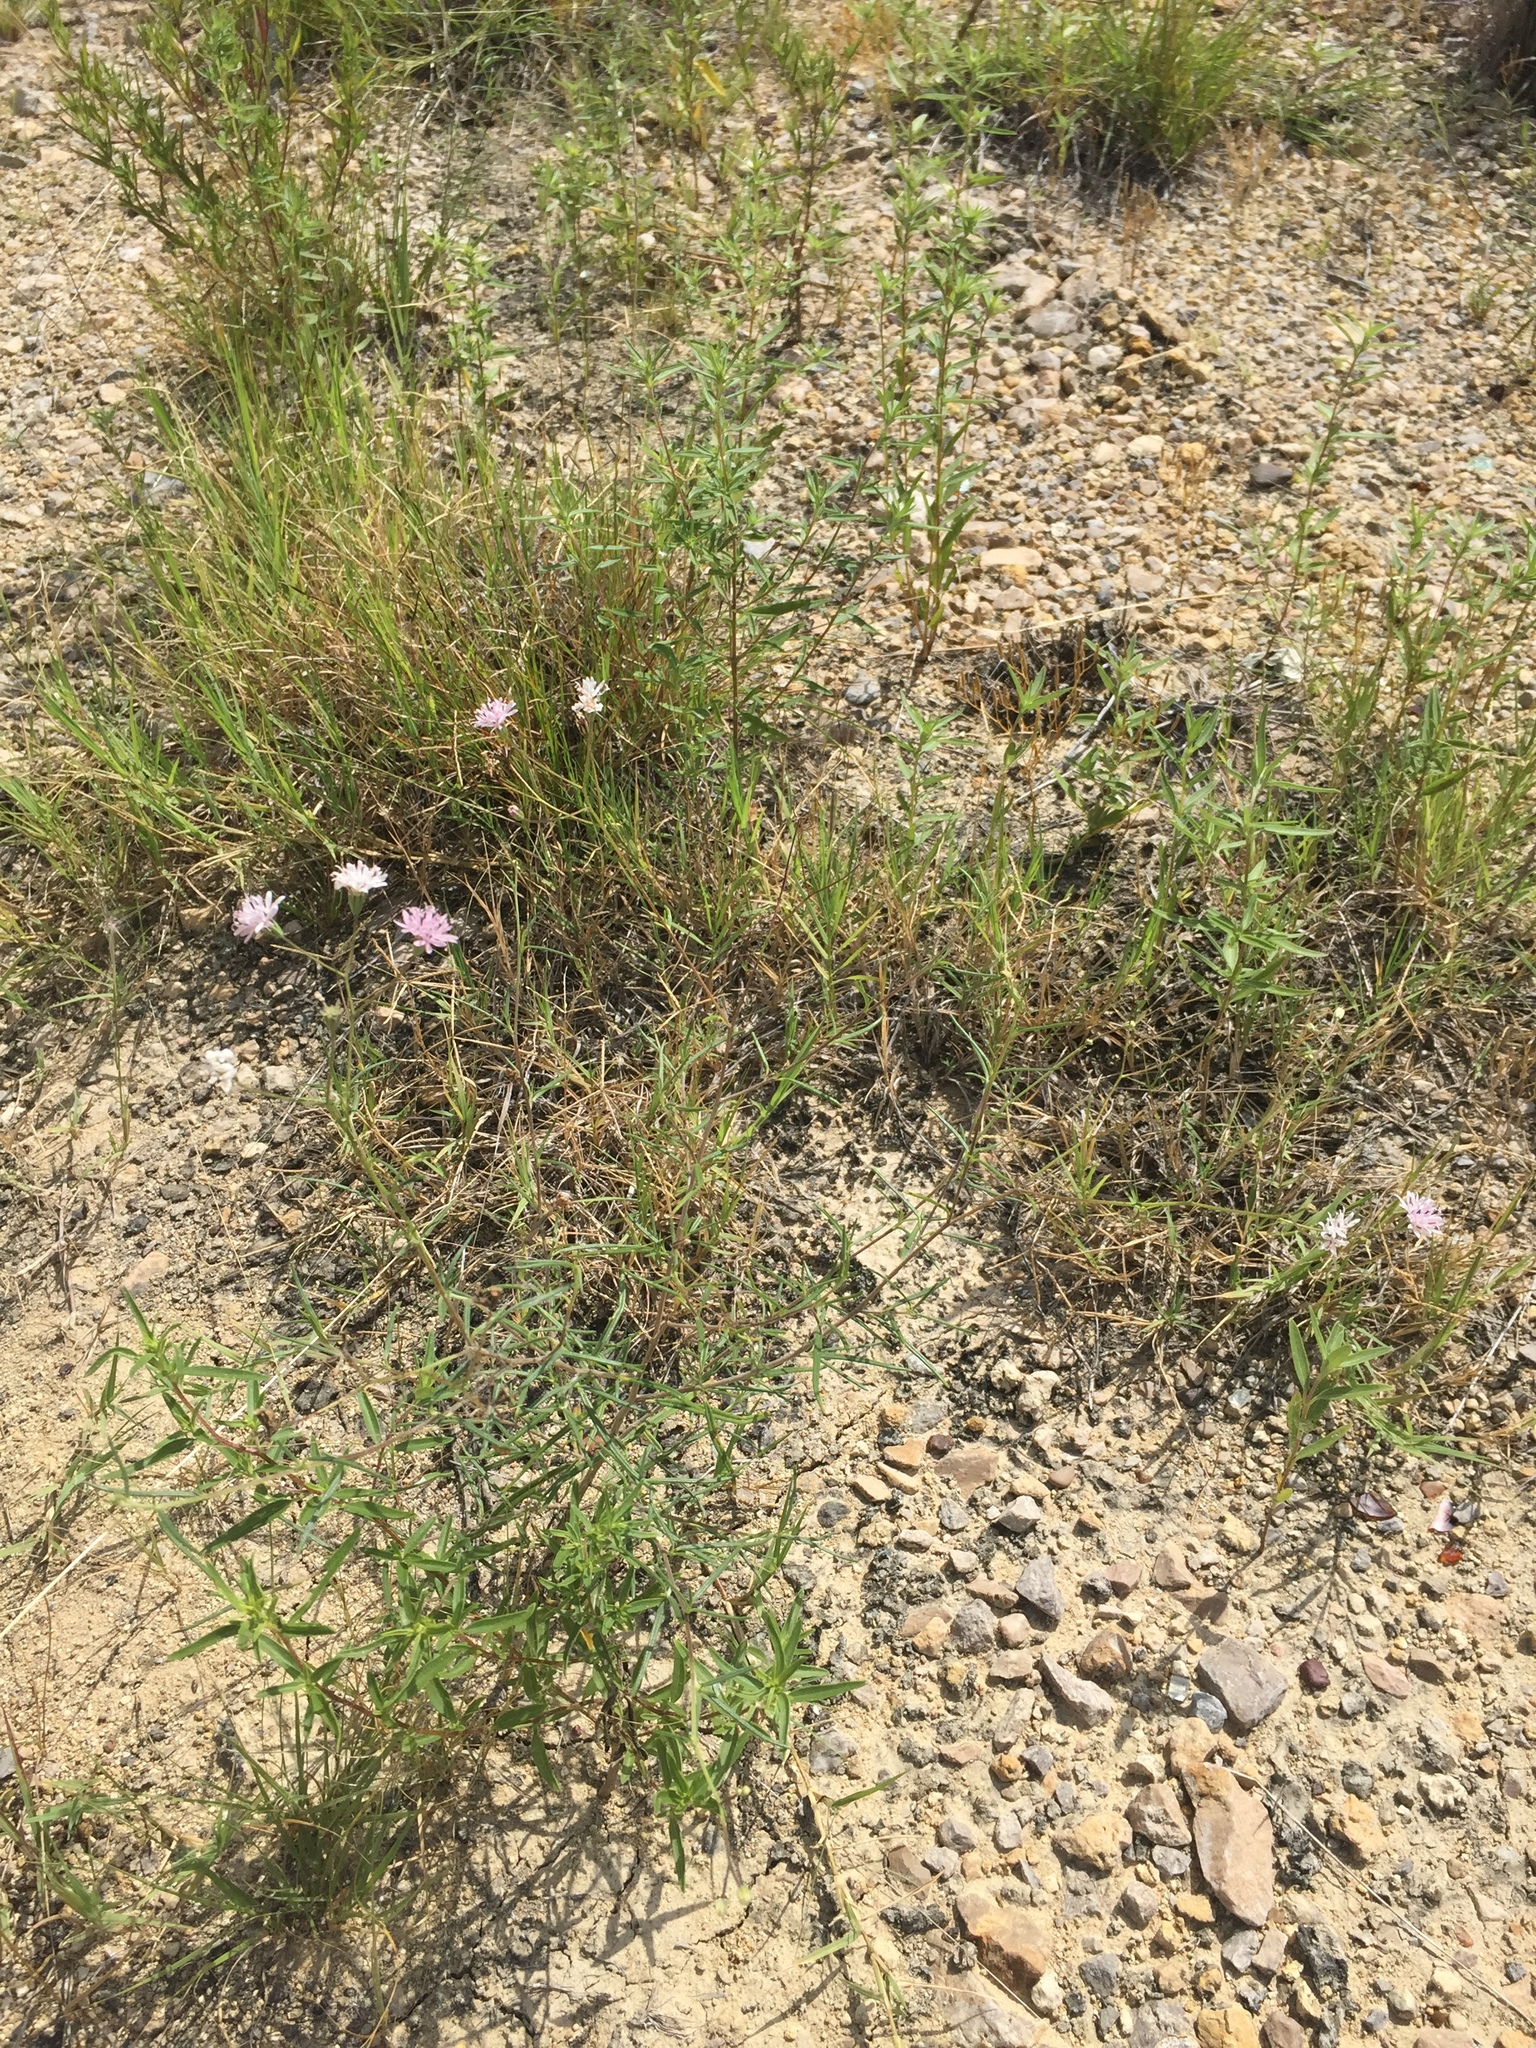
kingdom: Plantae
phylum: Tracheophyta
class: Magnoliopsida
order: Asterales
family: Asteraceae
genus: Palafoxia
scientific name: Palafoxia callosa
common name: Small palafox
